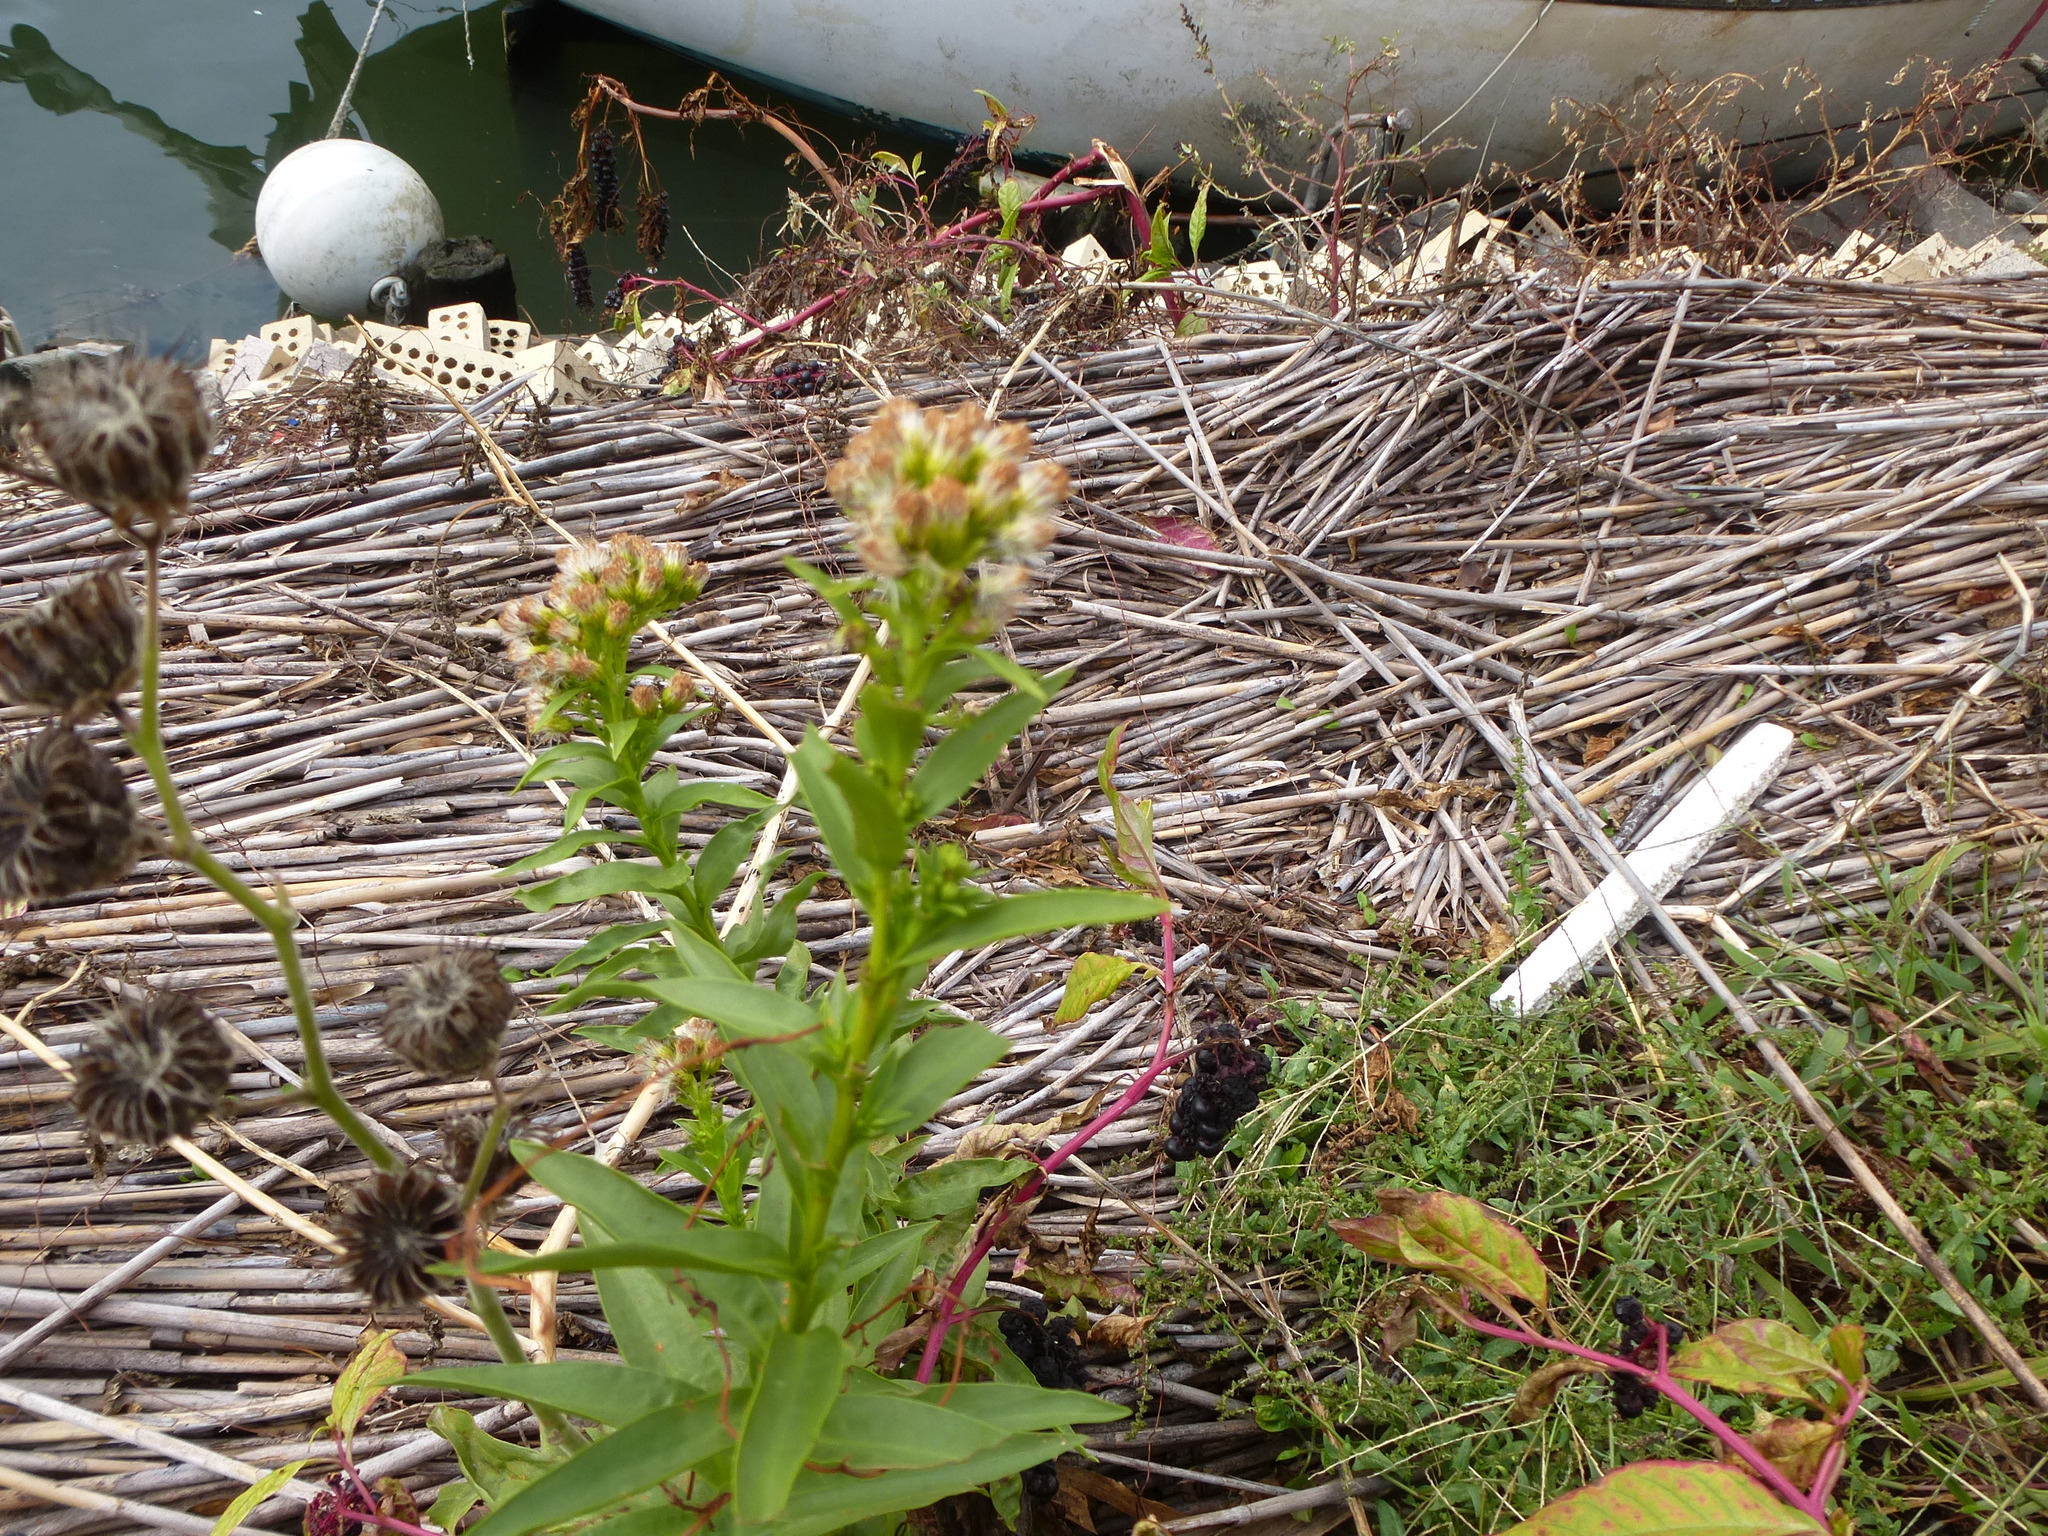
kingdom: Plantae
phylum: Tracheophyta
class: Magnoliopsida
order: Asterales
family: Asteraceae
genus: Solidago
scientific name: Solidago sempervirens
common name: Salt-marsh goldenrod
